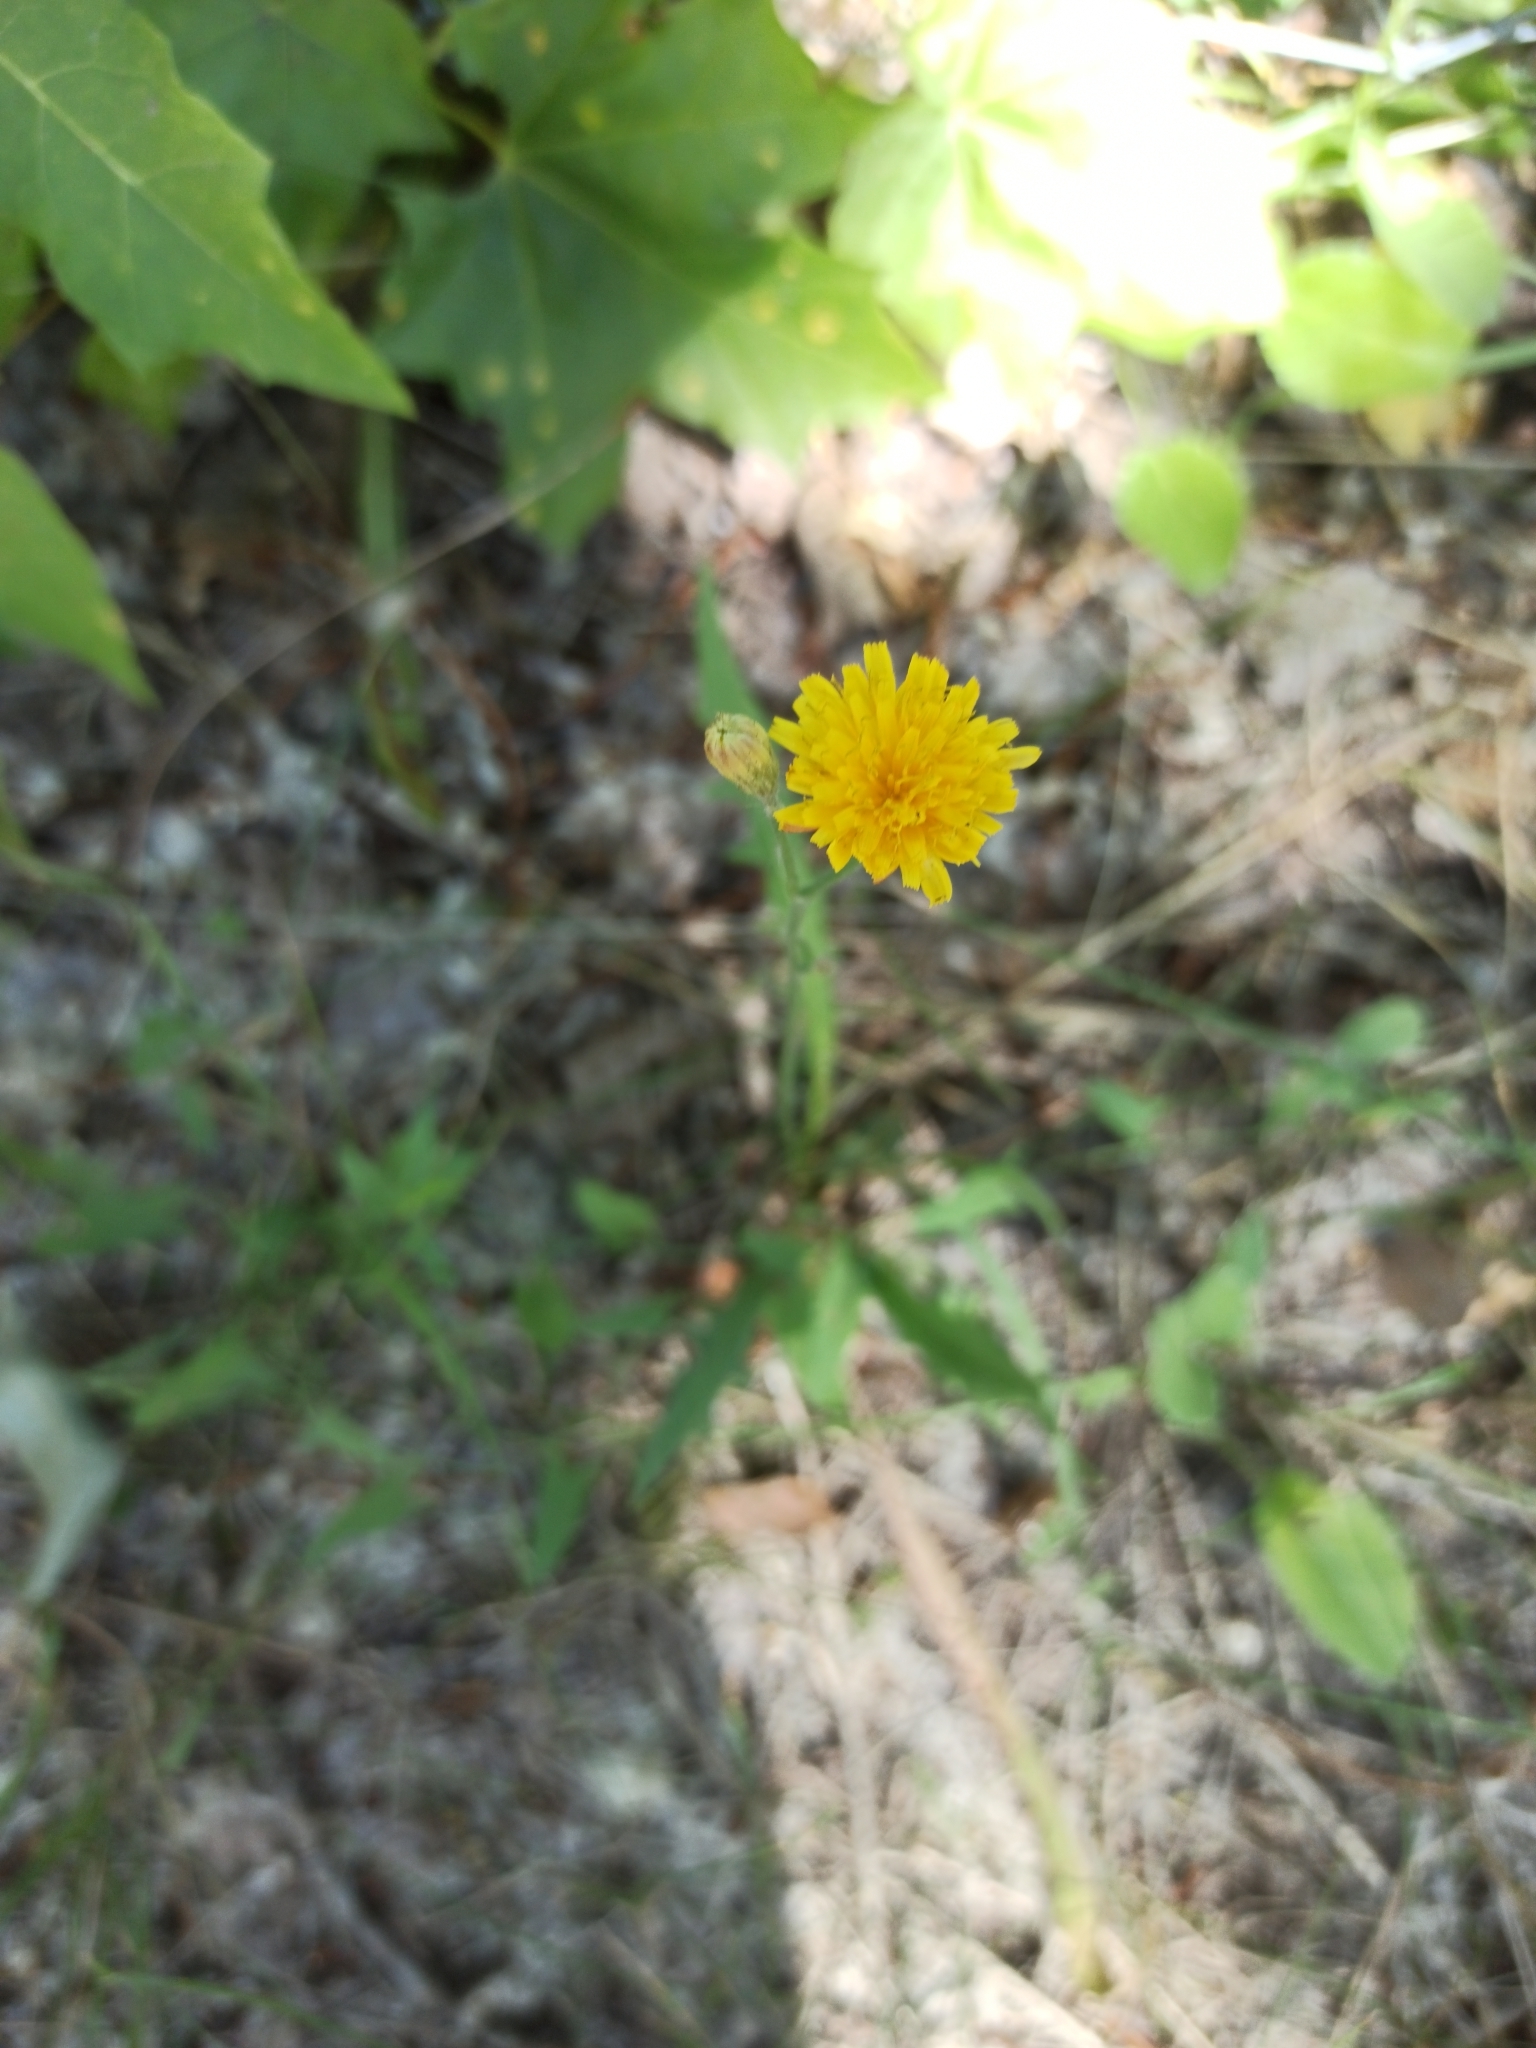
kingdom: Plantae
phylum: Tracheophyta
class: Magnoliopsida
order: Asterales
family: Asteraceae
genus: Scorzoneroides
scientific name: Scorzoneroides autumnalis
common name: Autumn hawkbit
